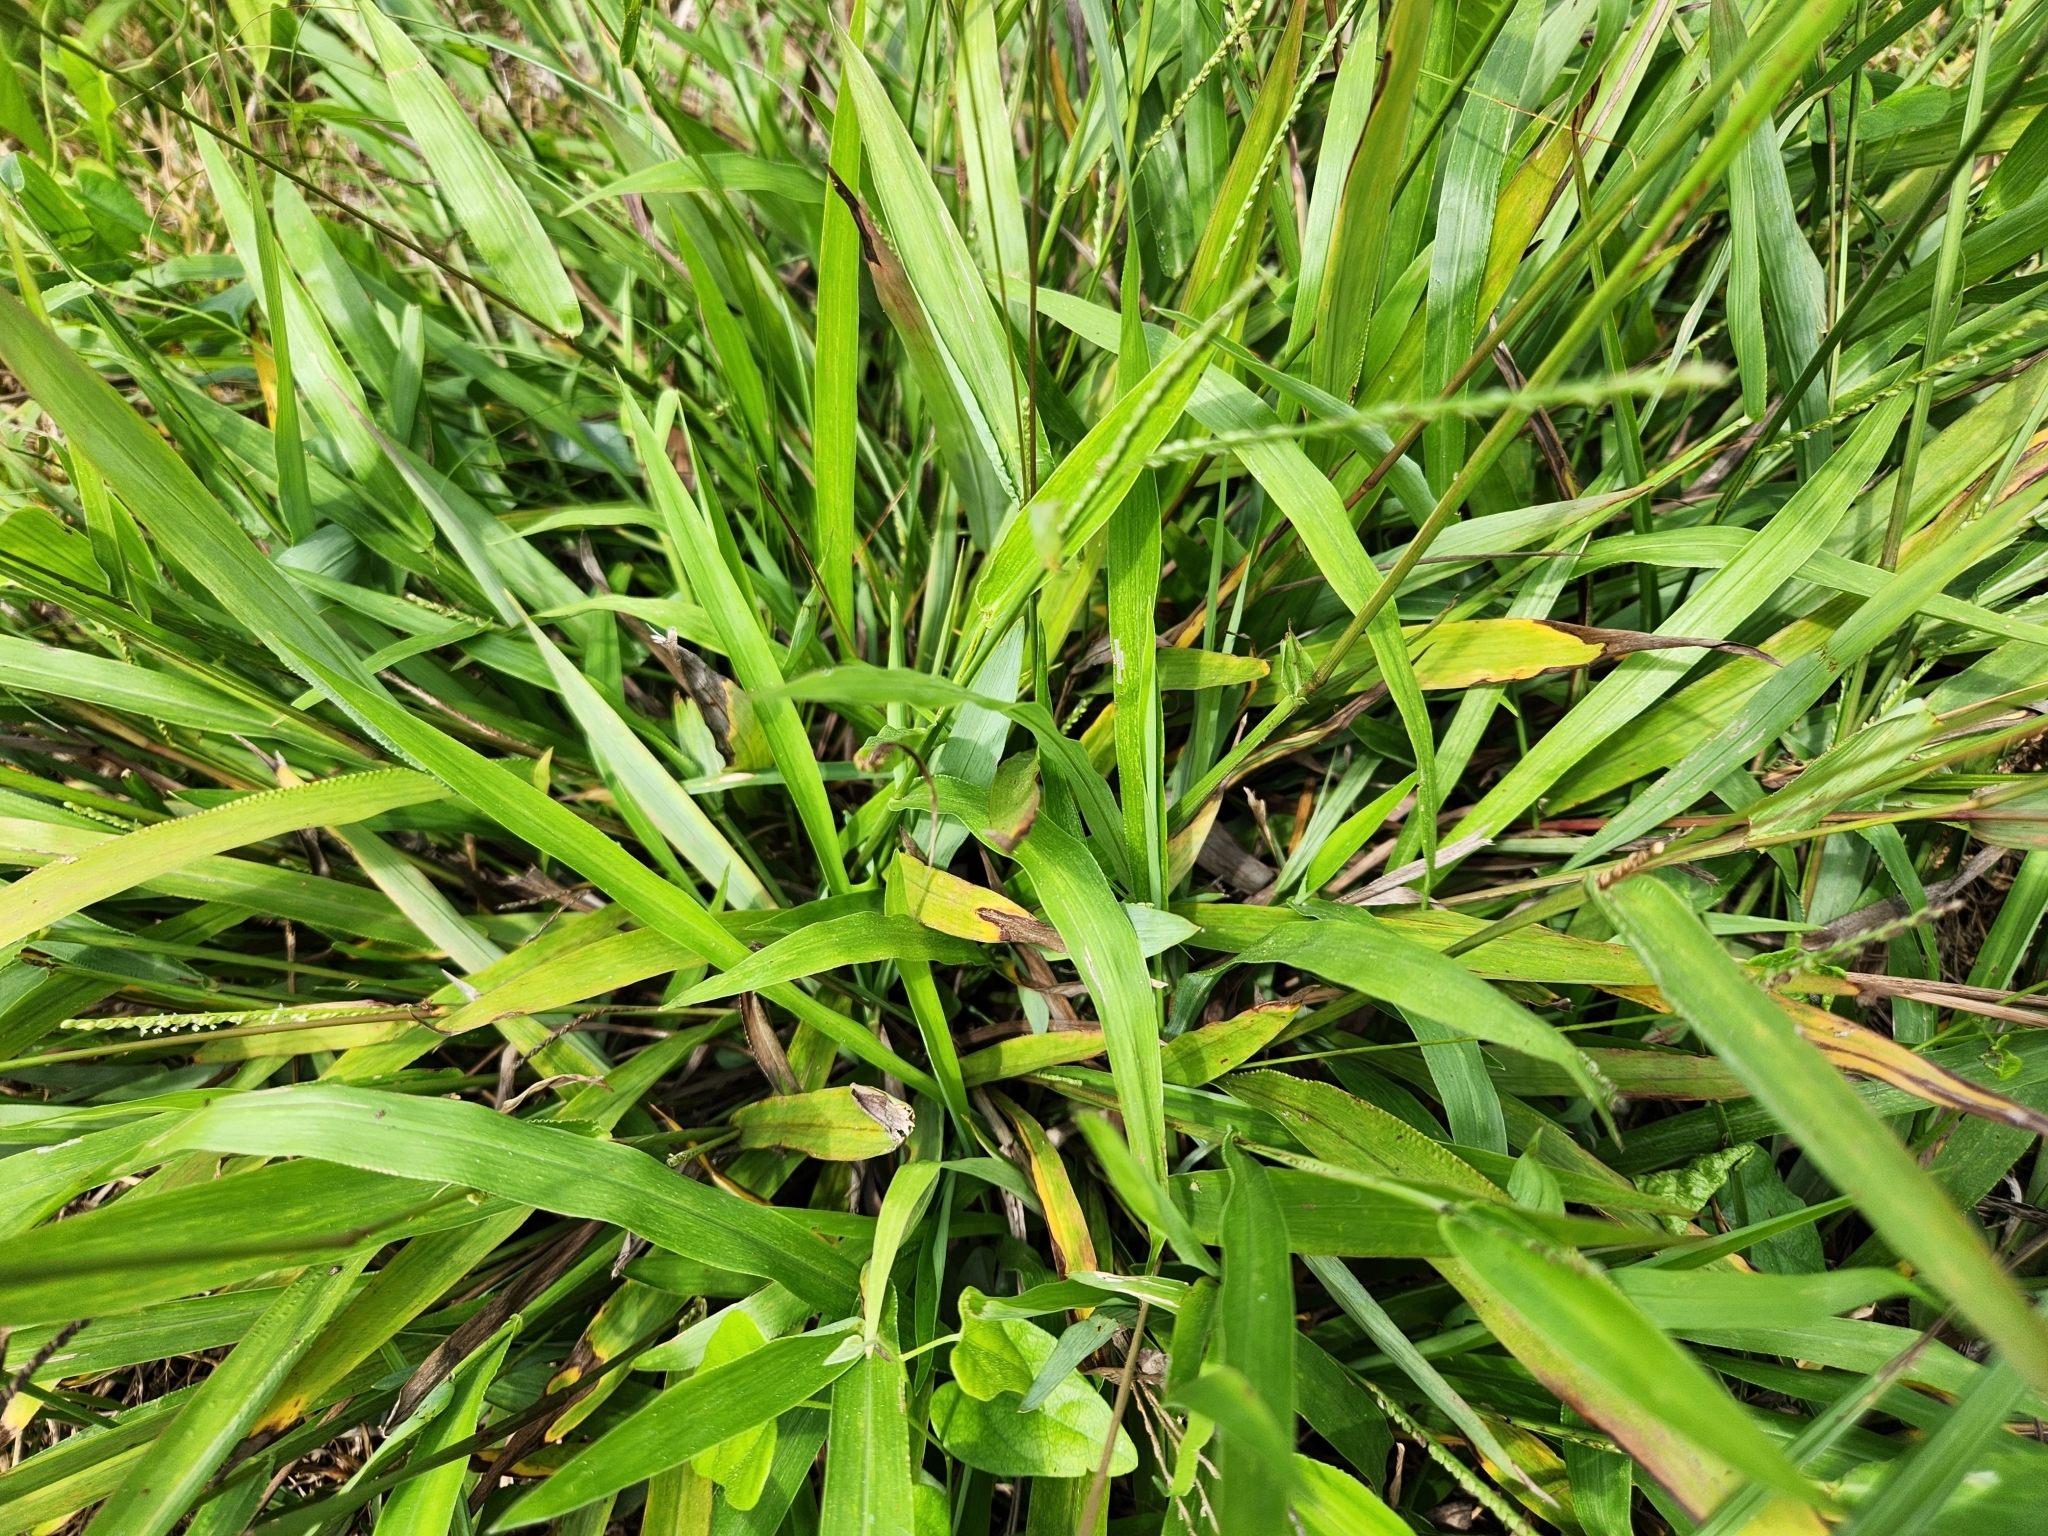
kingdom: Plantae
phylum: Tracheophyta
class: Liliopsida
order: Poales
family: Poaceae
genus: Paspalum
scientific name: Paspalum langei
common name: Rusty-seed paspalum
